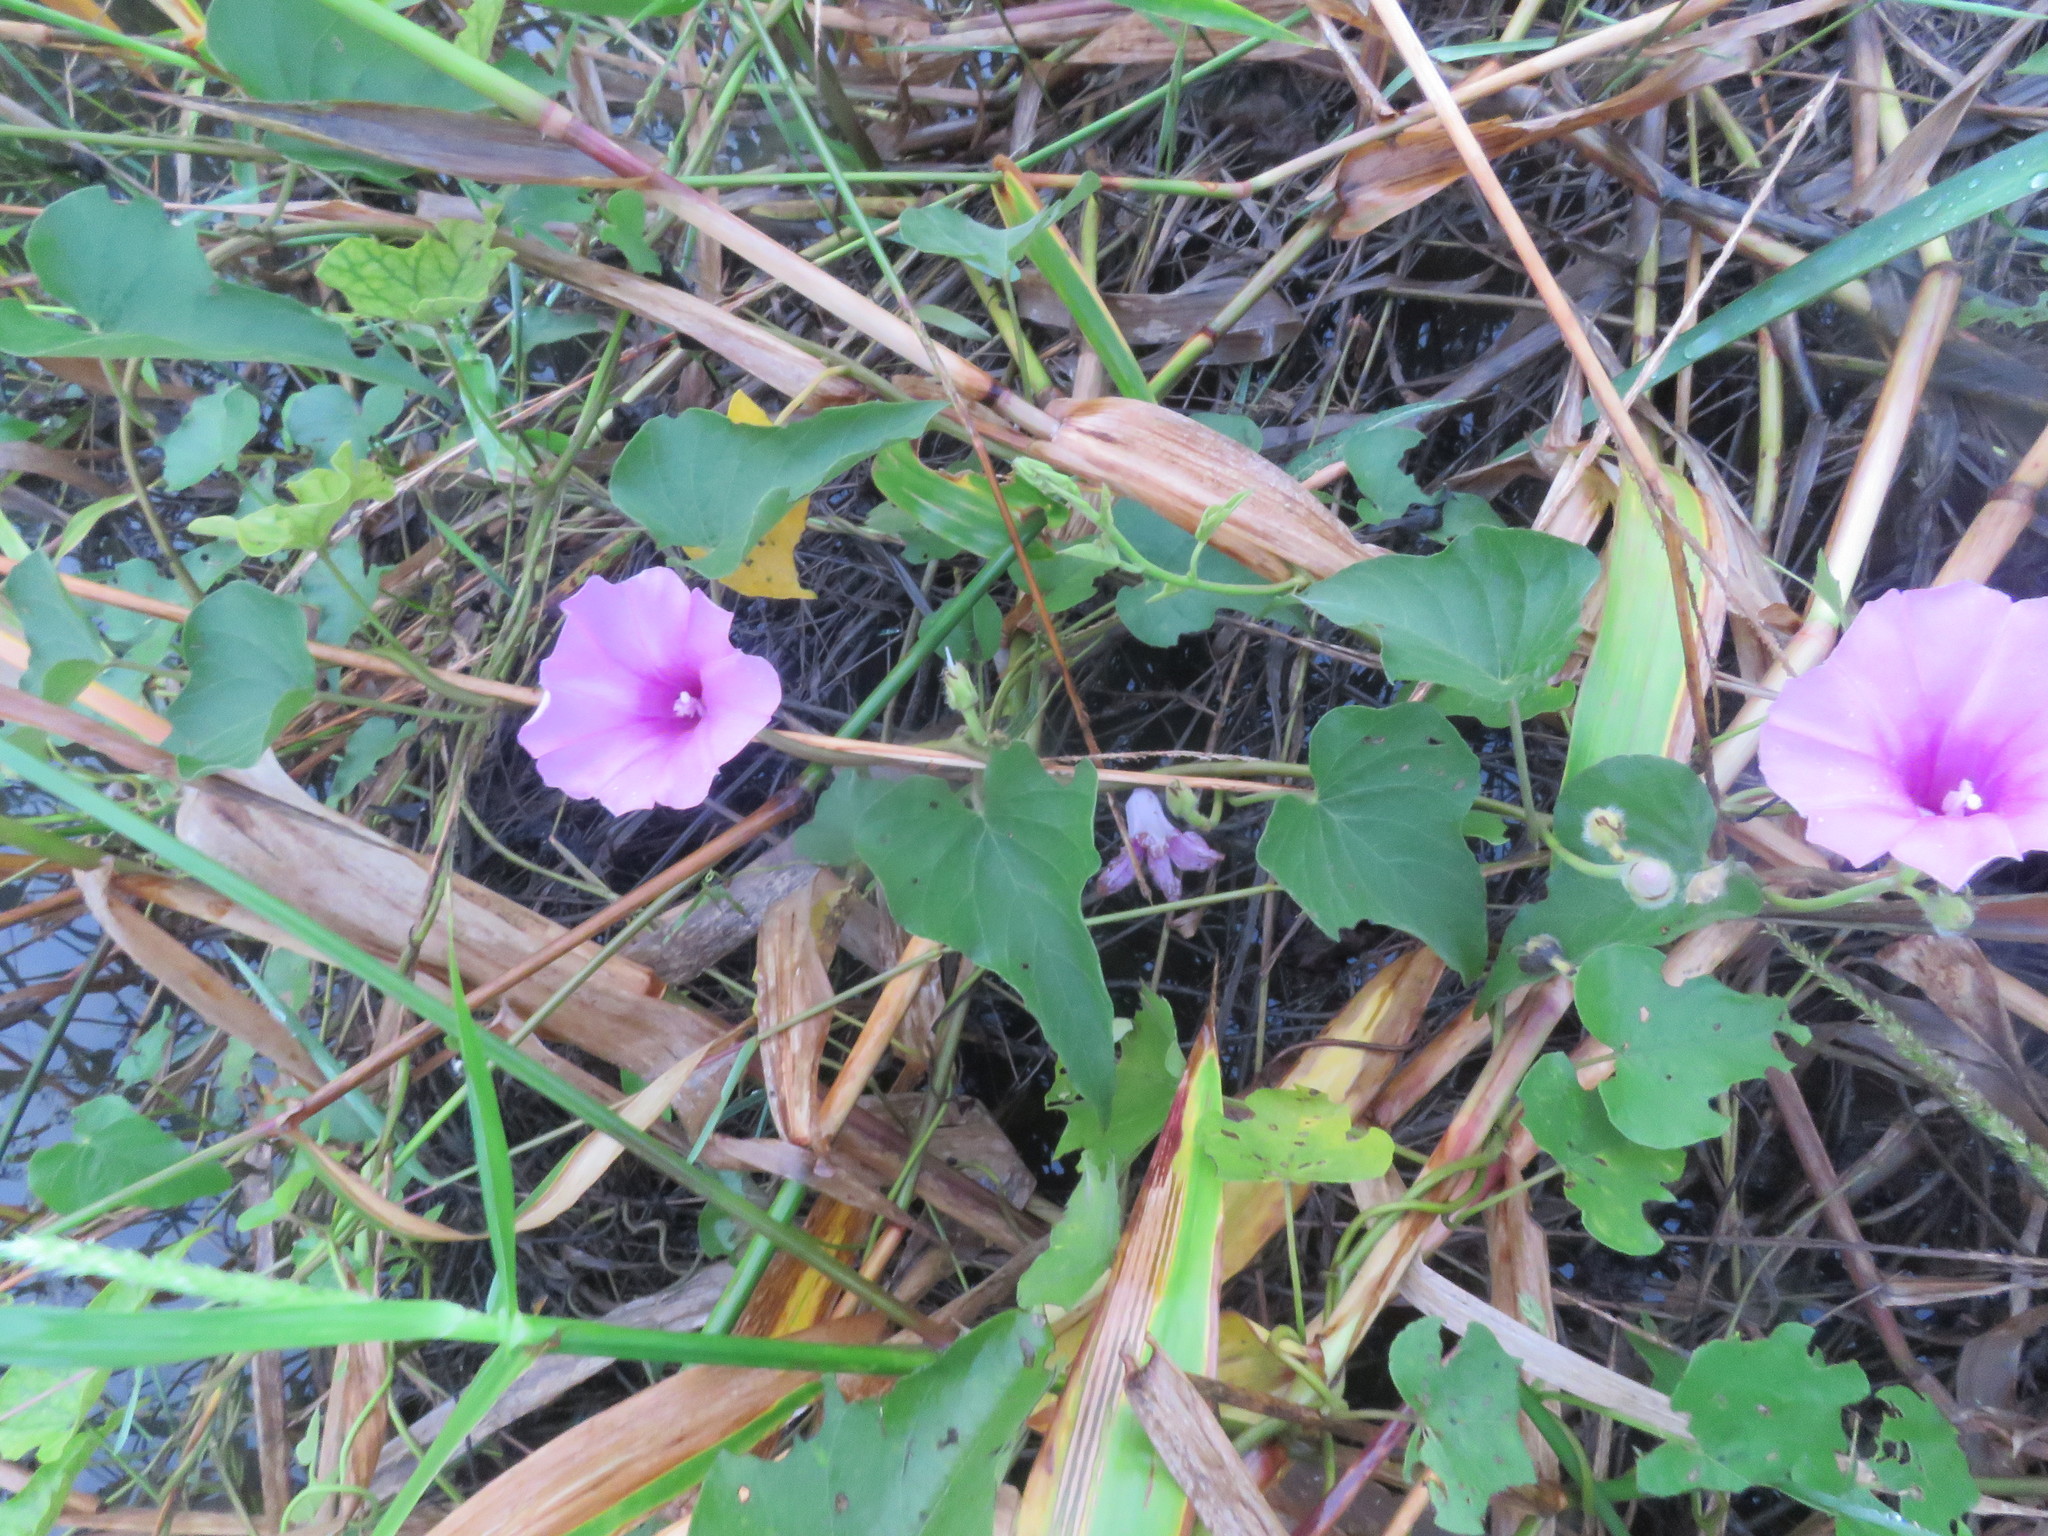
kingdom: Plantae
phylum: Tracheophyta
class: Magnoliopsida
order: Solanales
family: Convolvulaceae
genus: Ipomoea
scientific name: Ipomoea rubens
